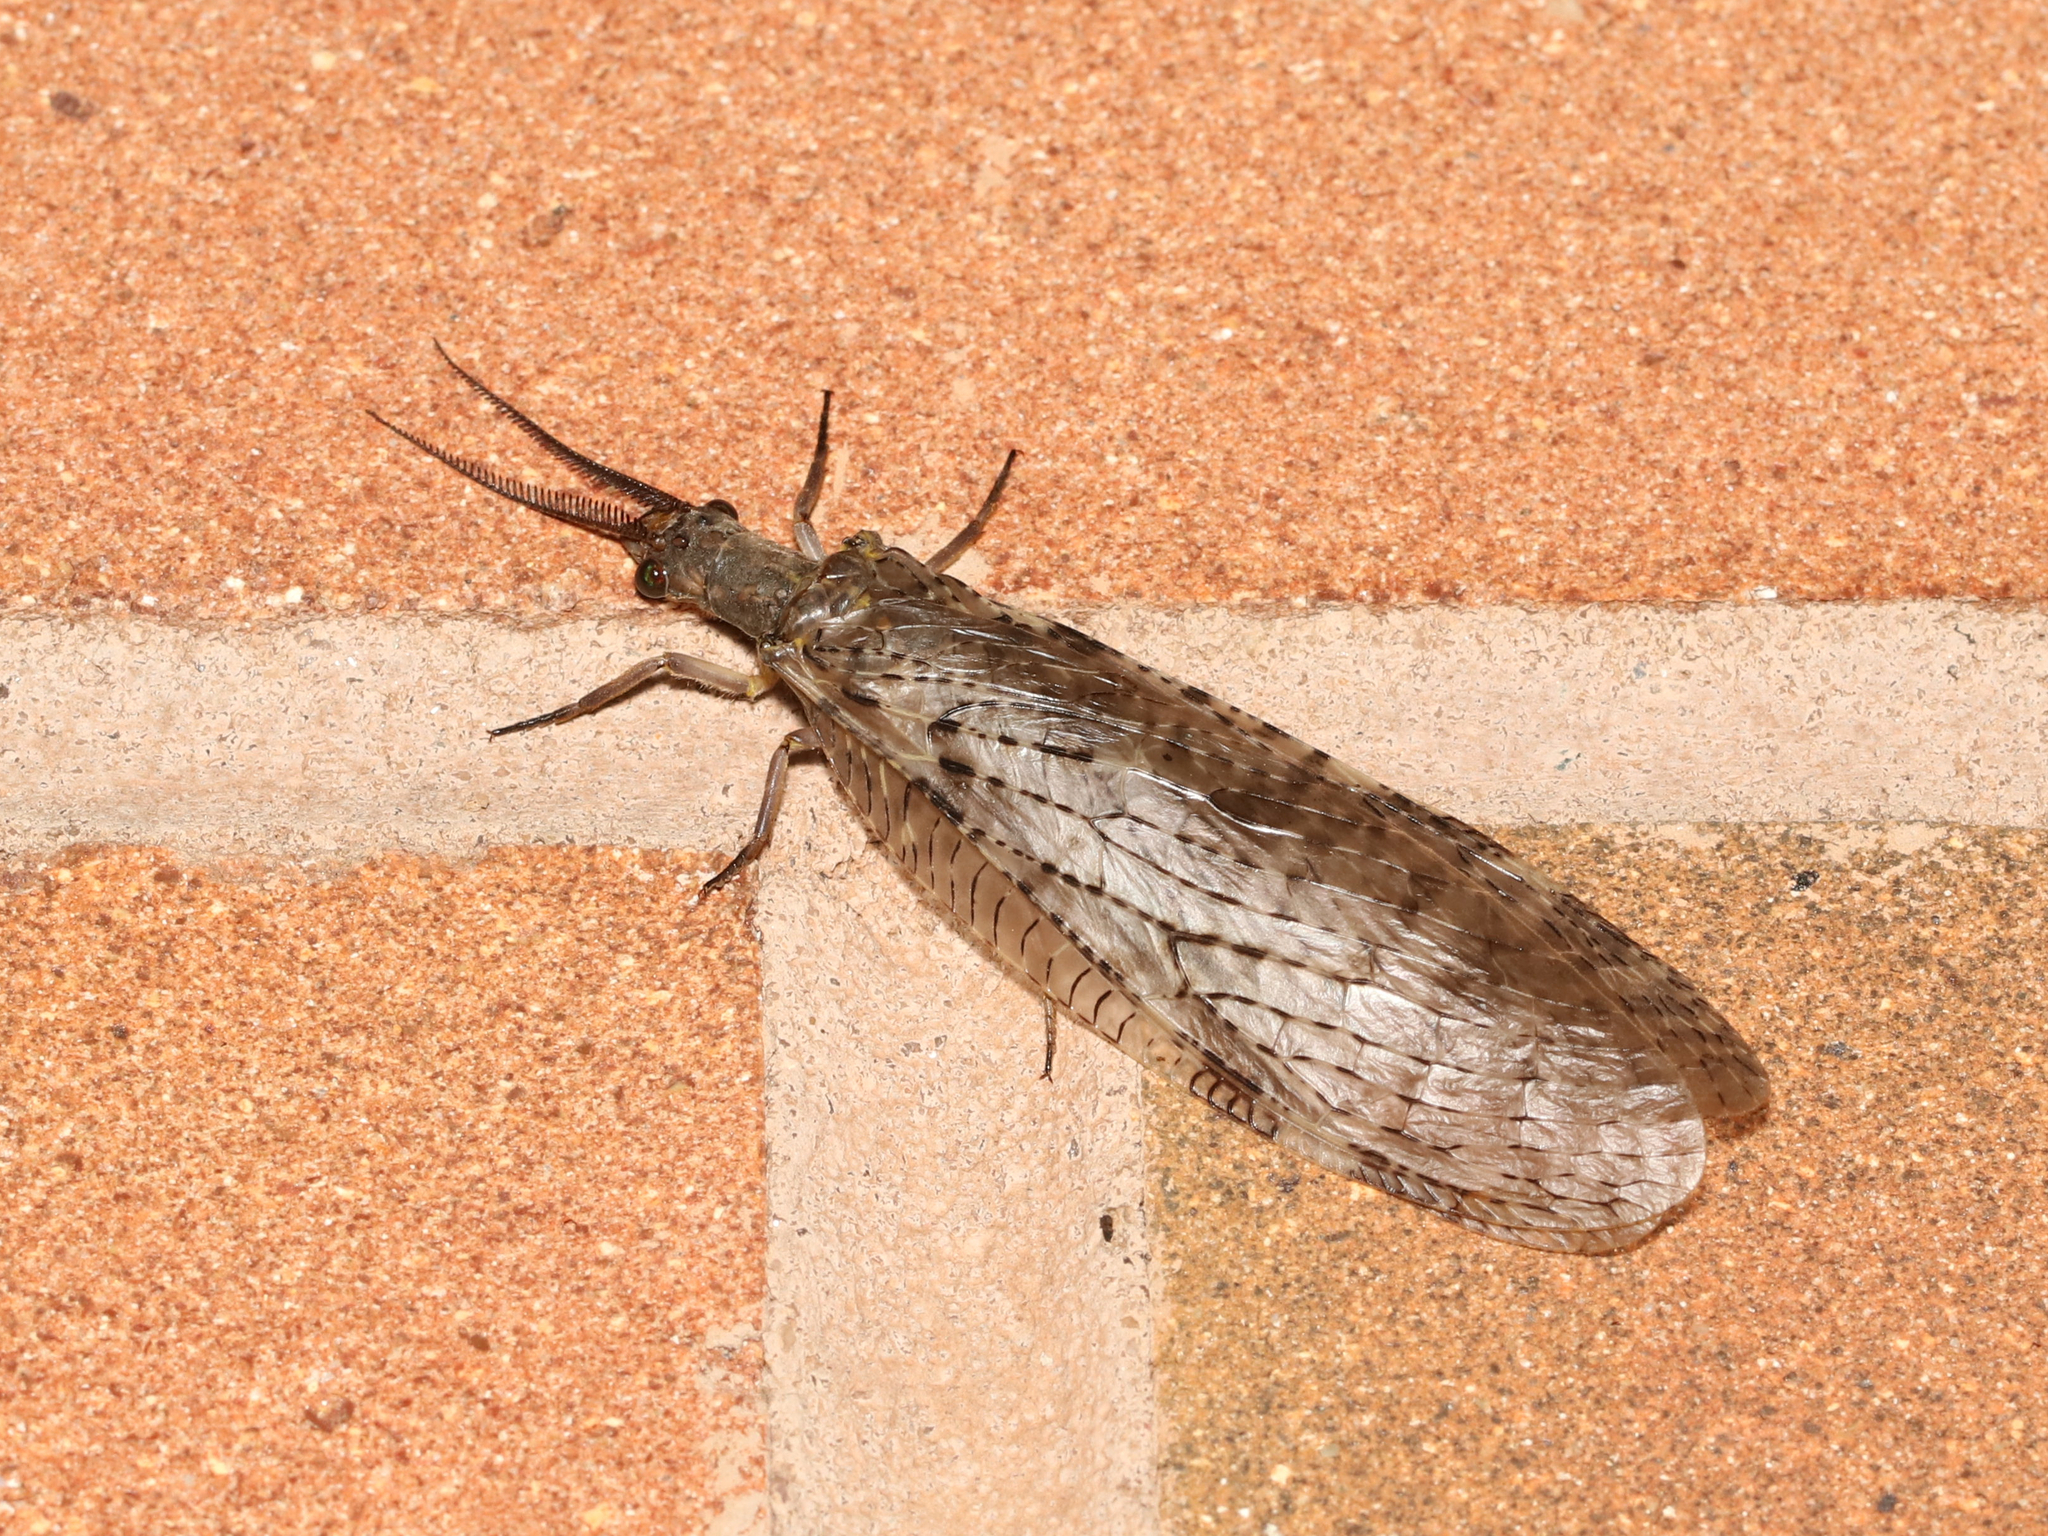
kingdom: Animalia
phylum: Arthropoda
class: Insecta
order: Megaloptera
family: Corydalidae
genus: Chauliodes
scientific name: Chauliodes pectinicornis
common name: Summer fishfly
